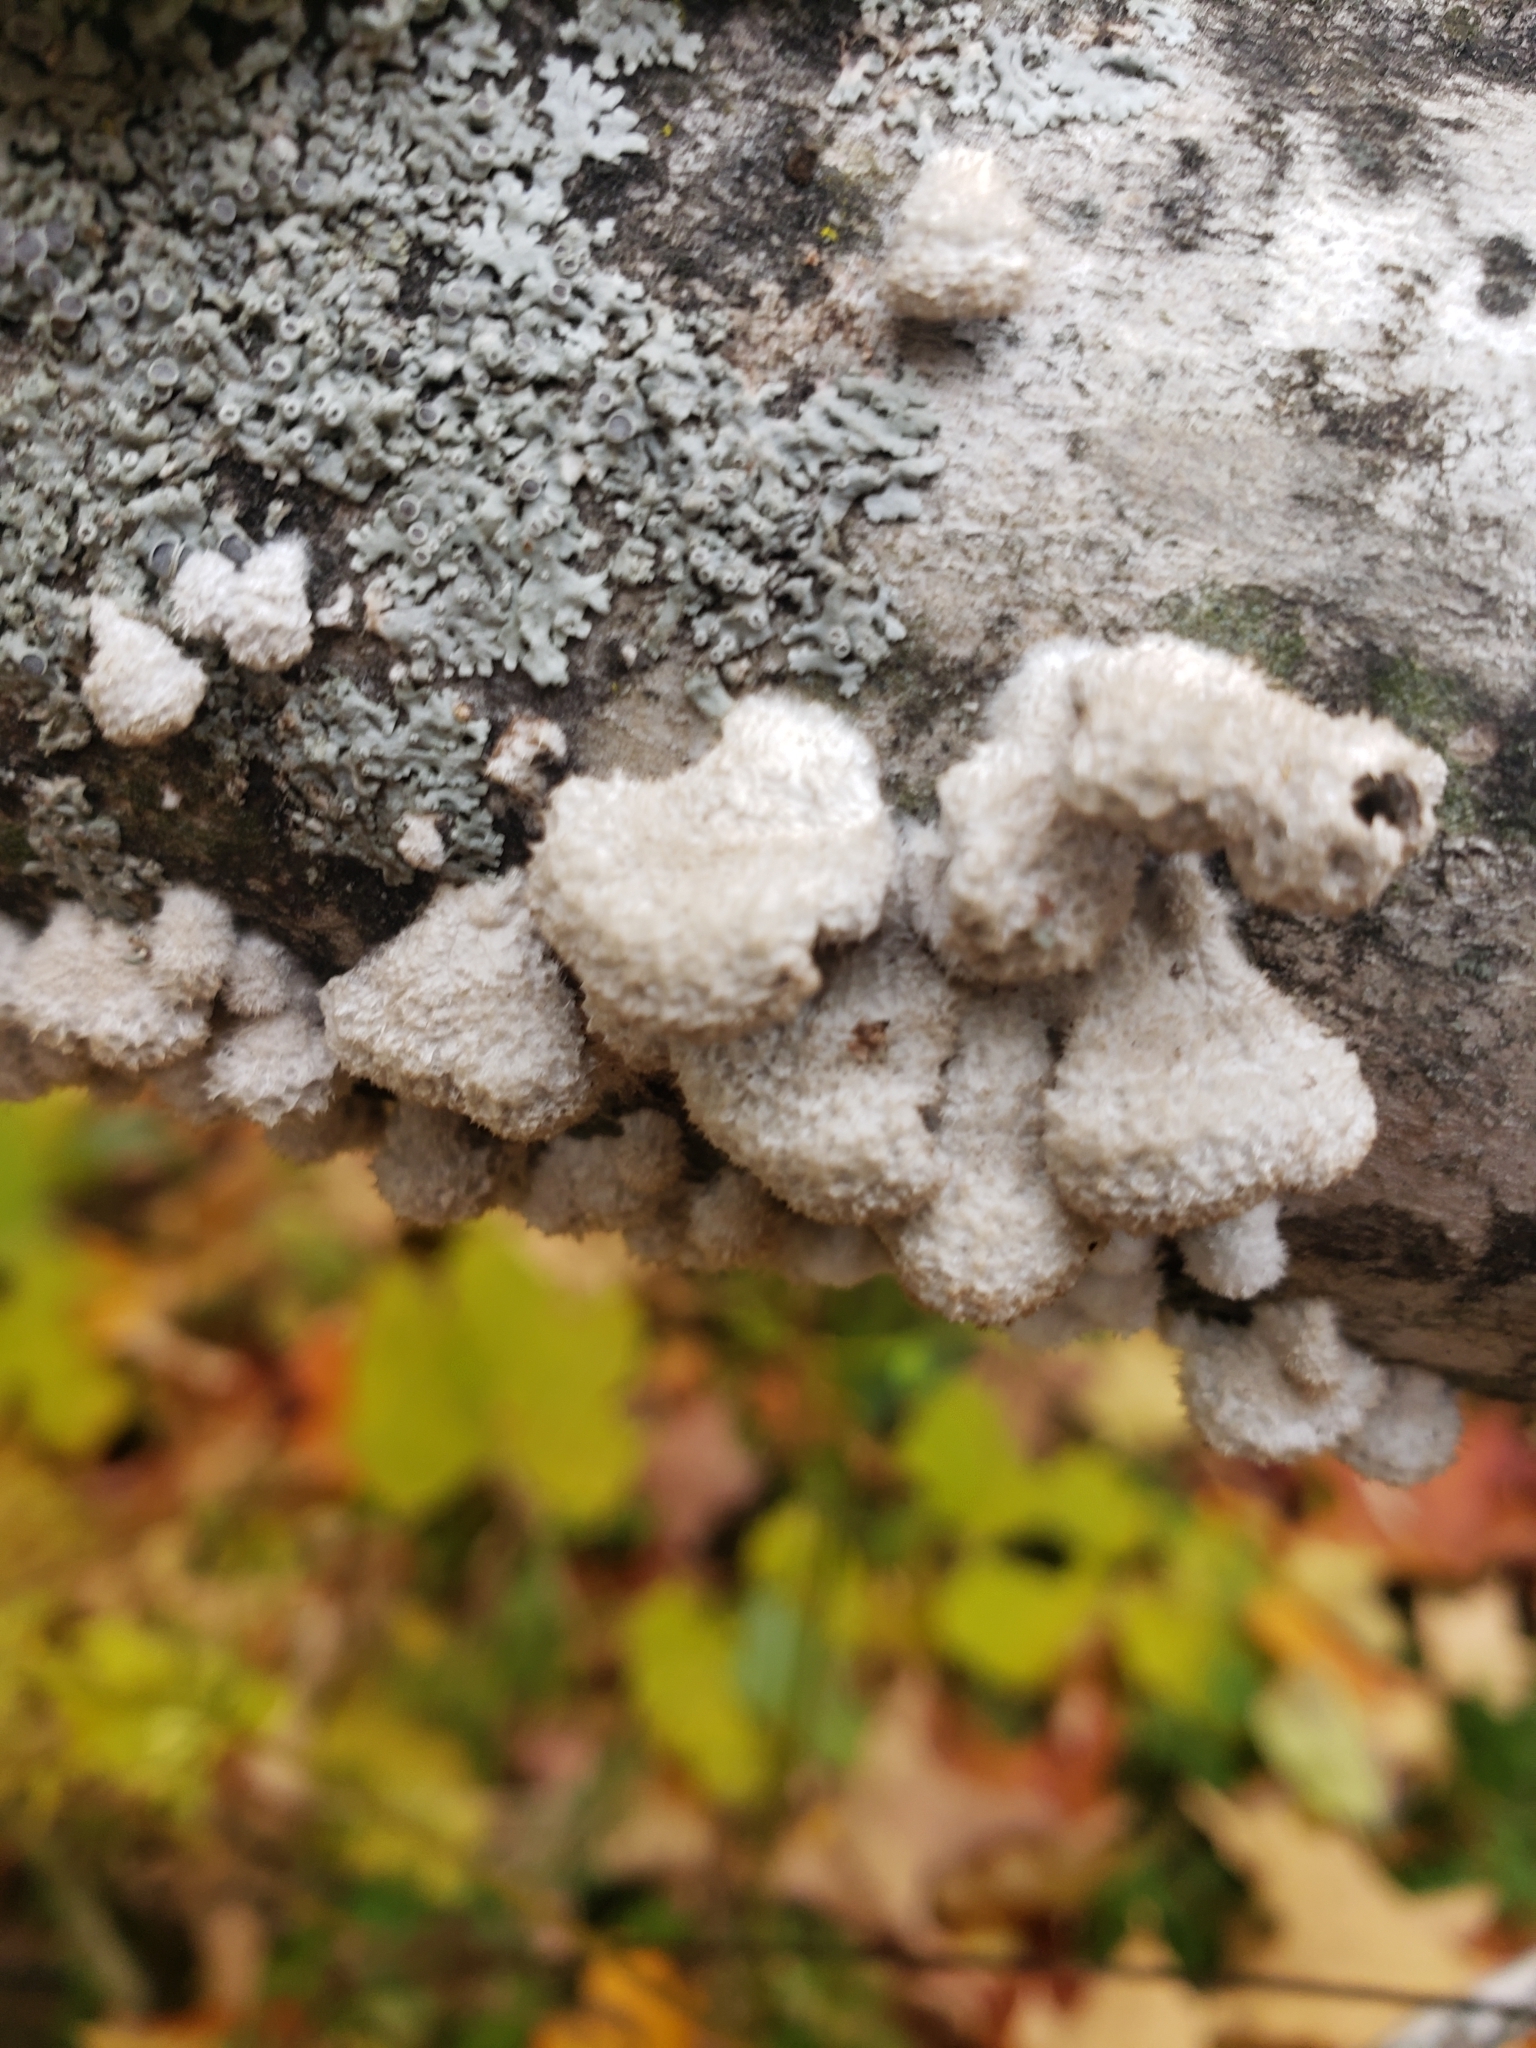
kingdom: Fungi
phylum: Basidiomycota
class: Agaricomycetes
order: Agaricales
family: Schizophyllaceae
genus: Schizophyllum
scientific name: Schizophyllum commune
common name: Common porecrust
